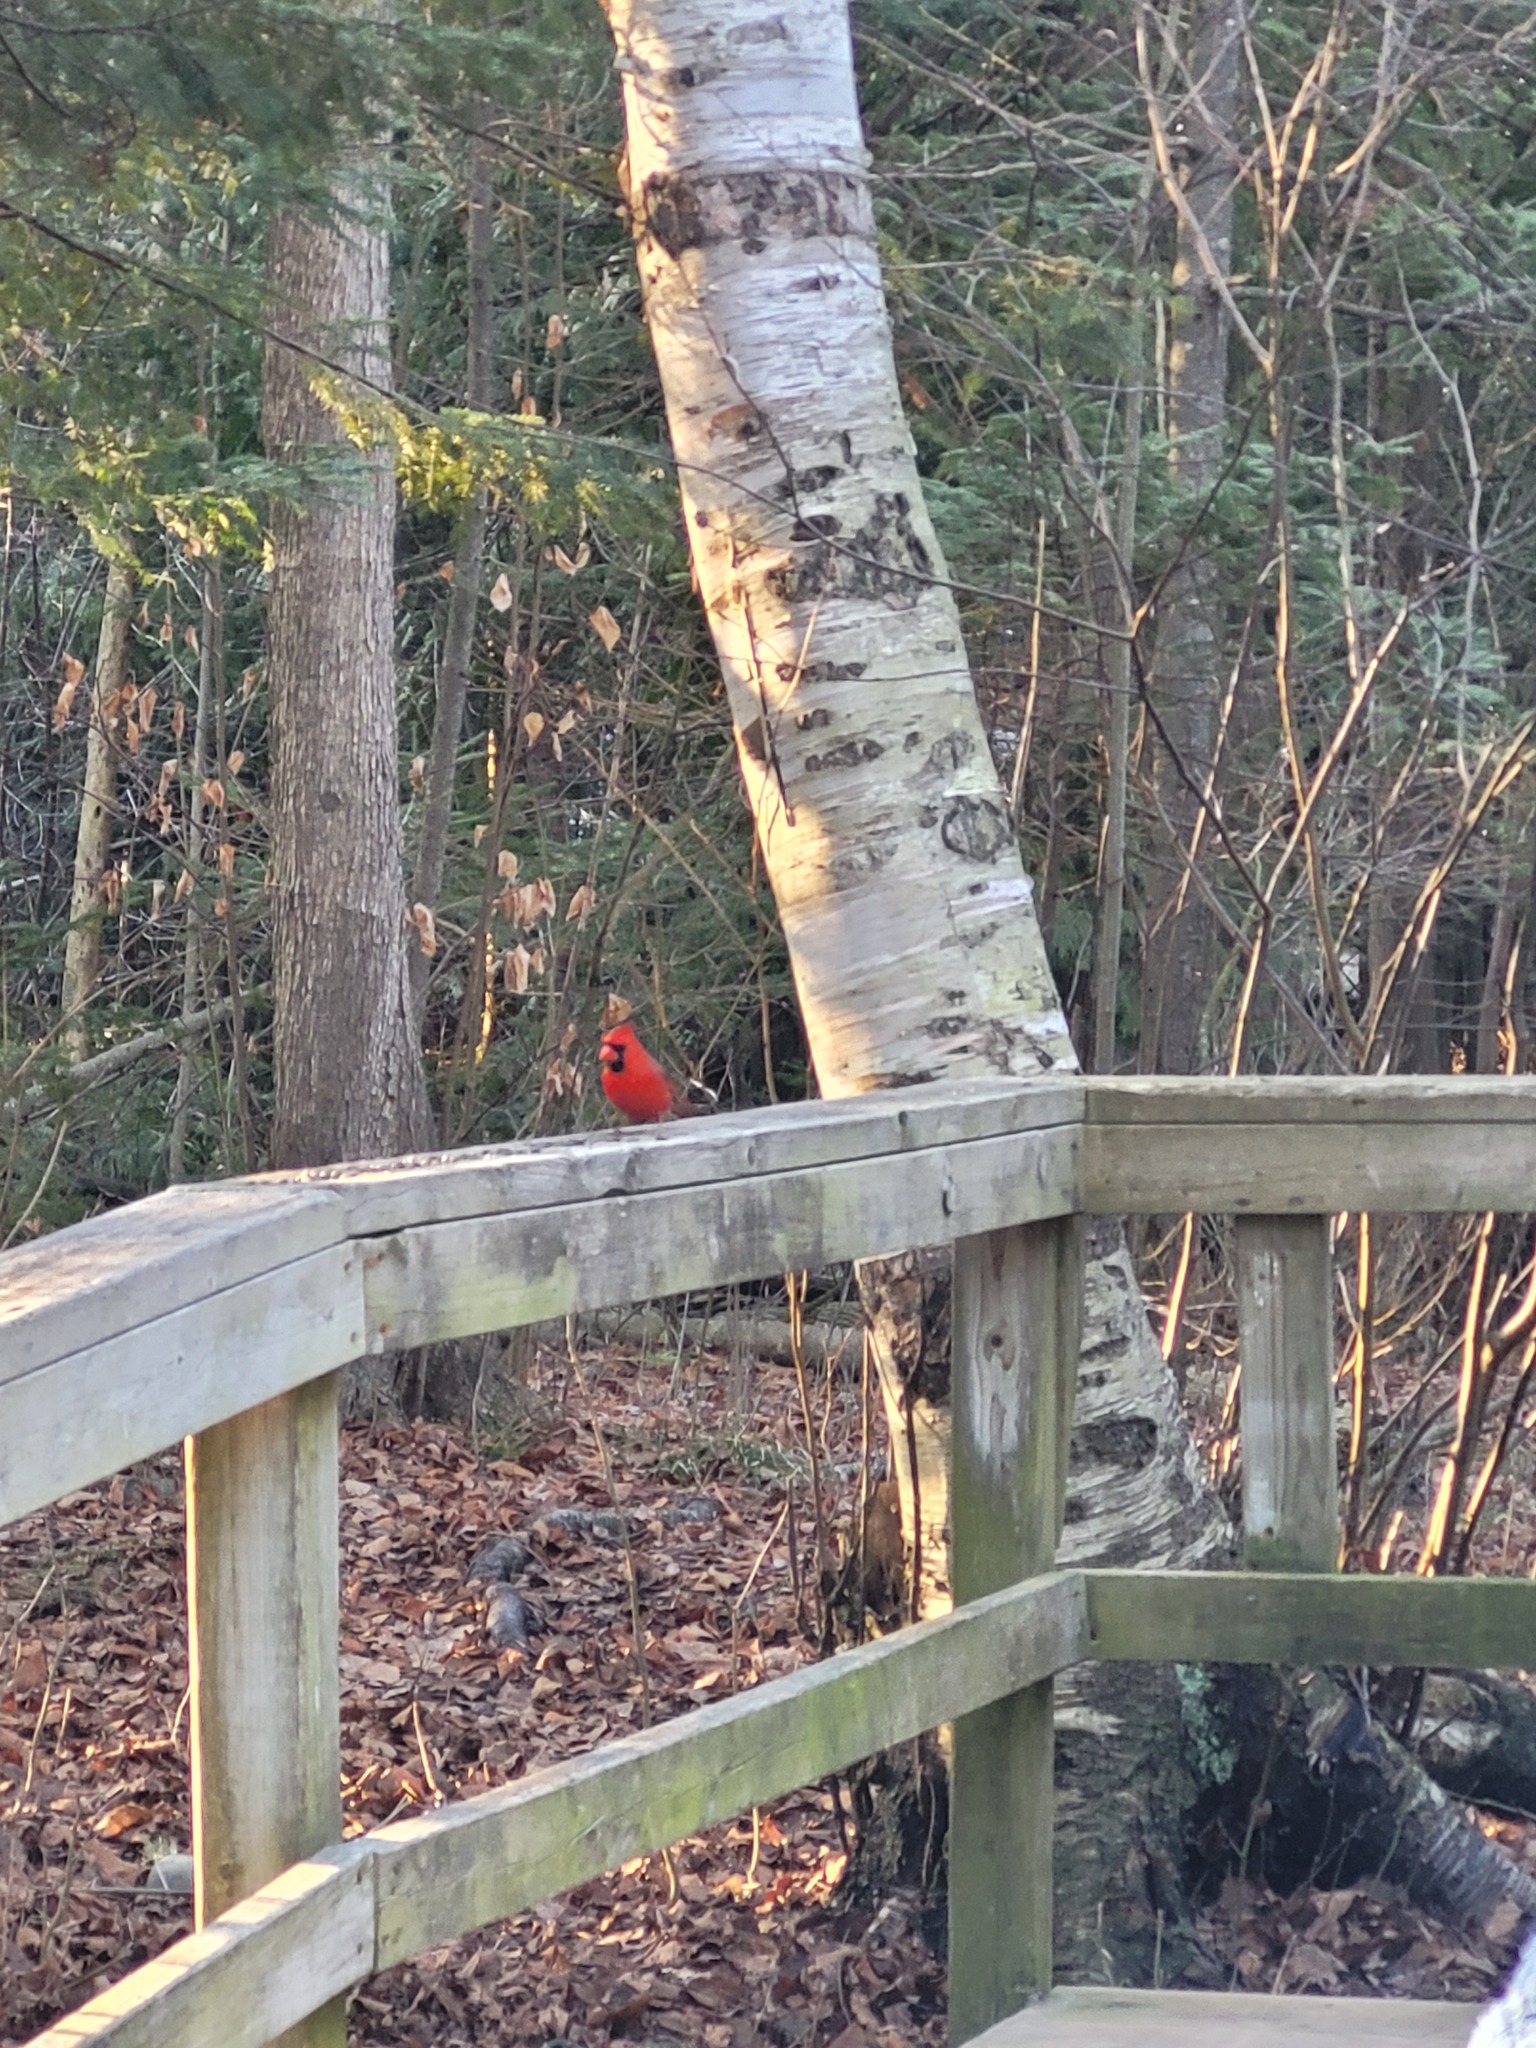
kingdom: Animalia
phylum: Chordata
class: Aves
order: Passeriformes
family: Cardinalidae
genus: Cardinalis
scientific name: Cardinalis cardinalis
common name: Northern cardinal
